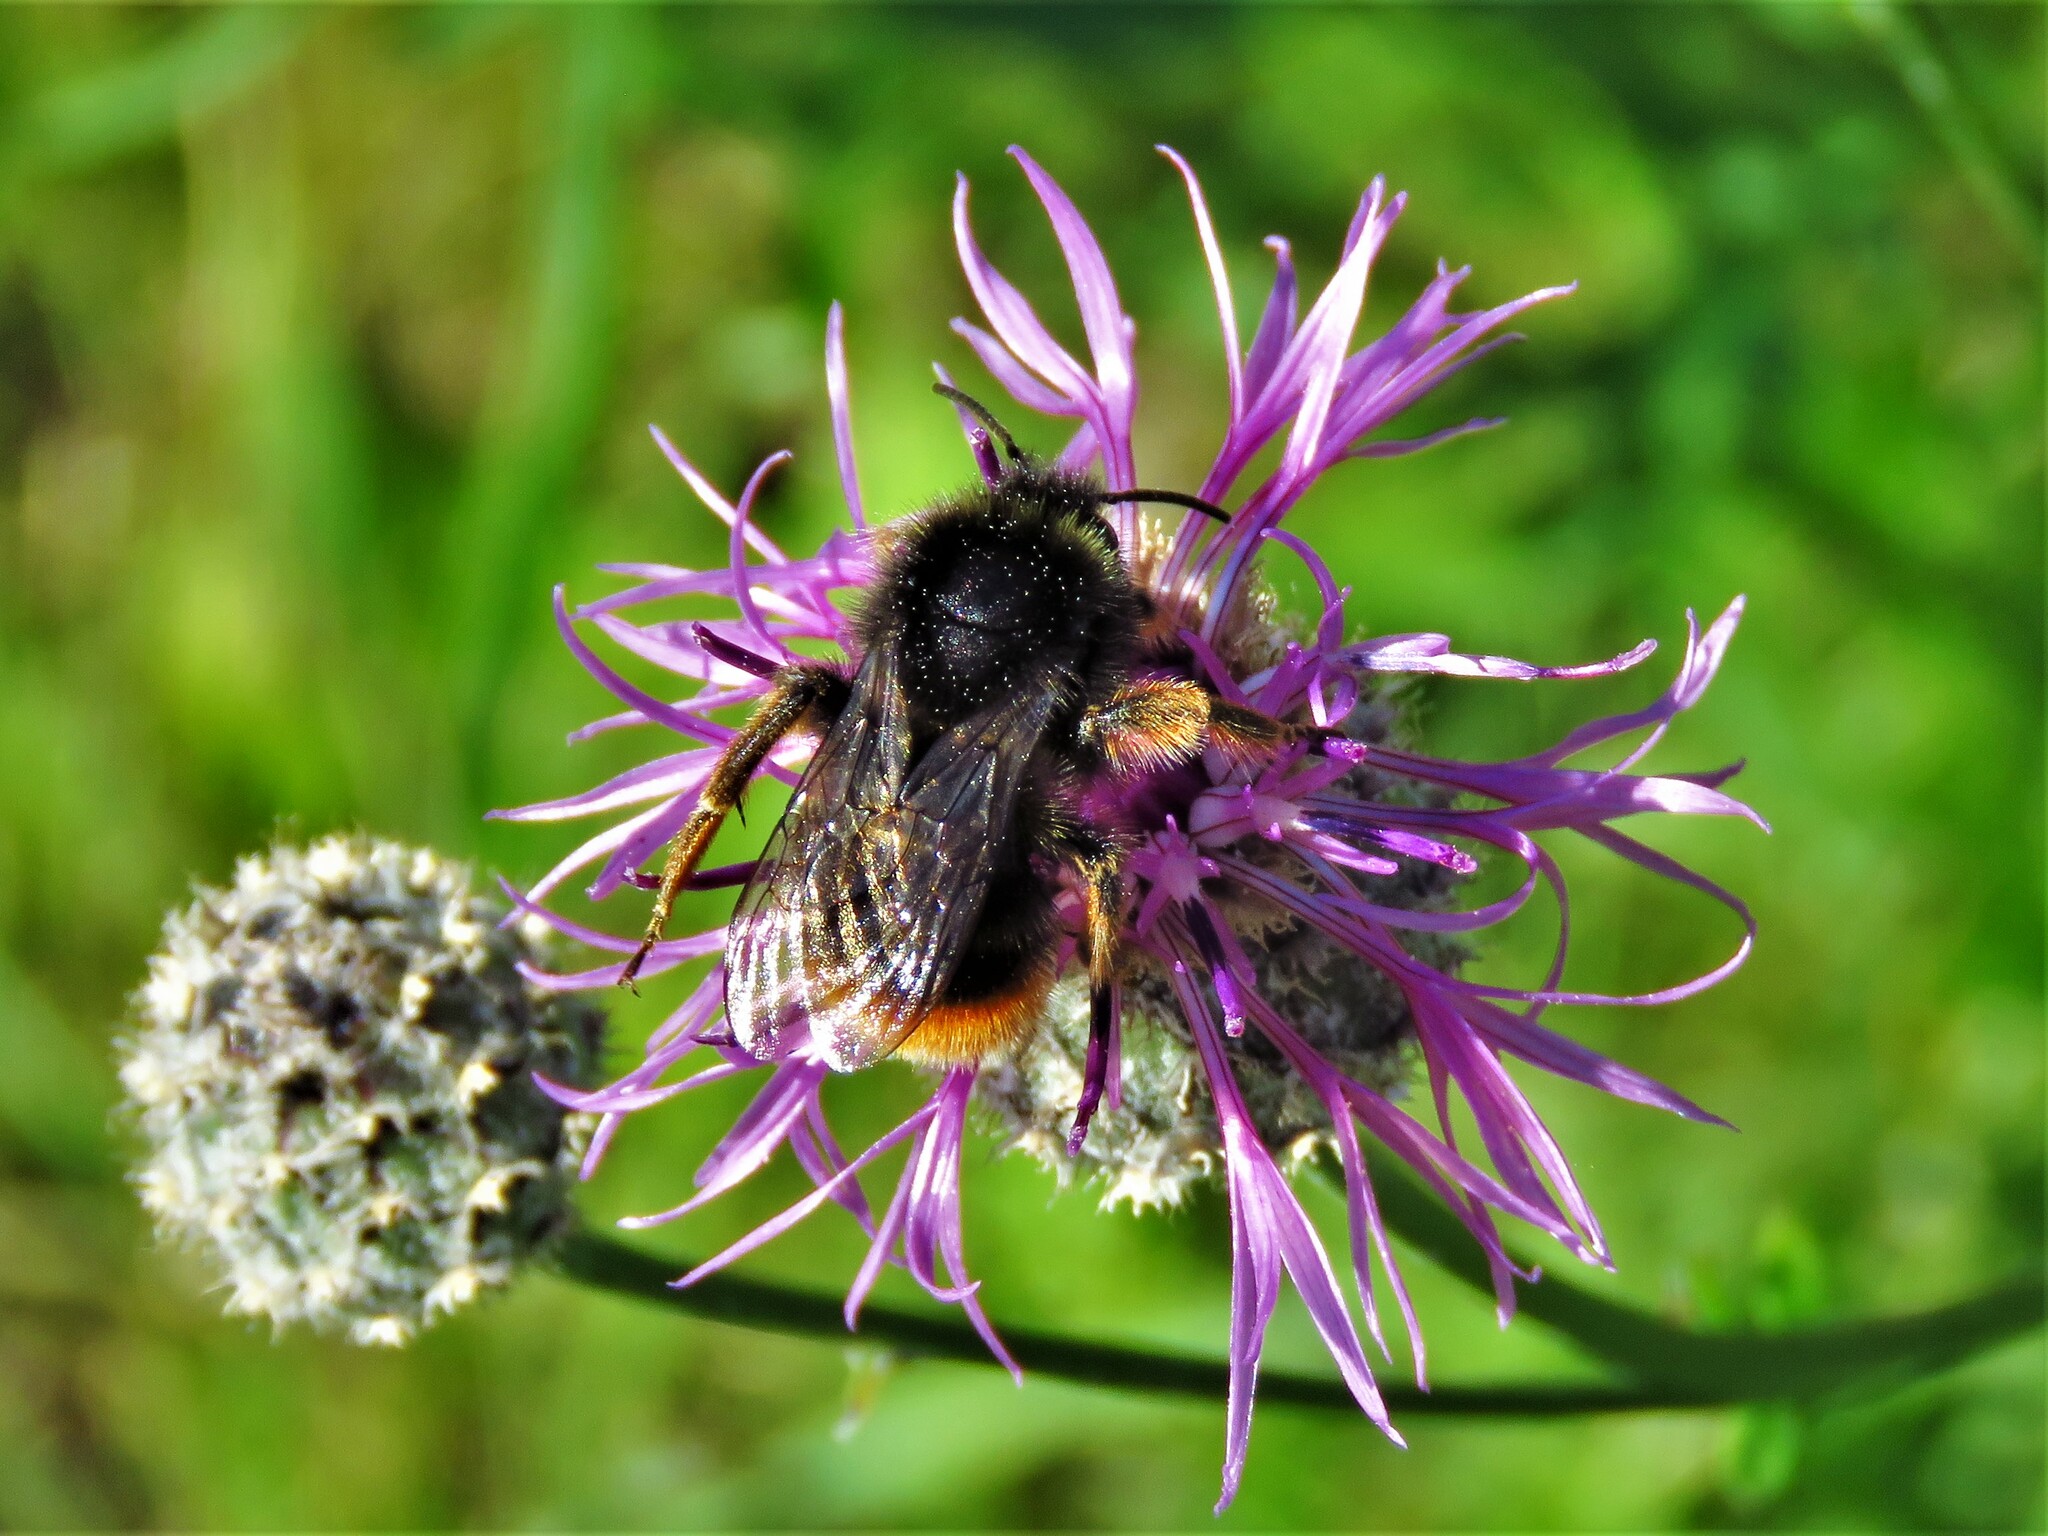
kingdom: Animalia
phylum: Arthropoda
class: Insecta
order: Hymenoptera
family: Apidae
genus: Bombus
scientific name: Bombus lapidarius
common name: Large red-tailed humble-bee
